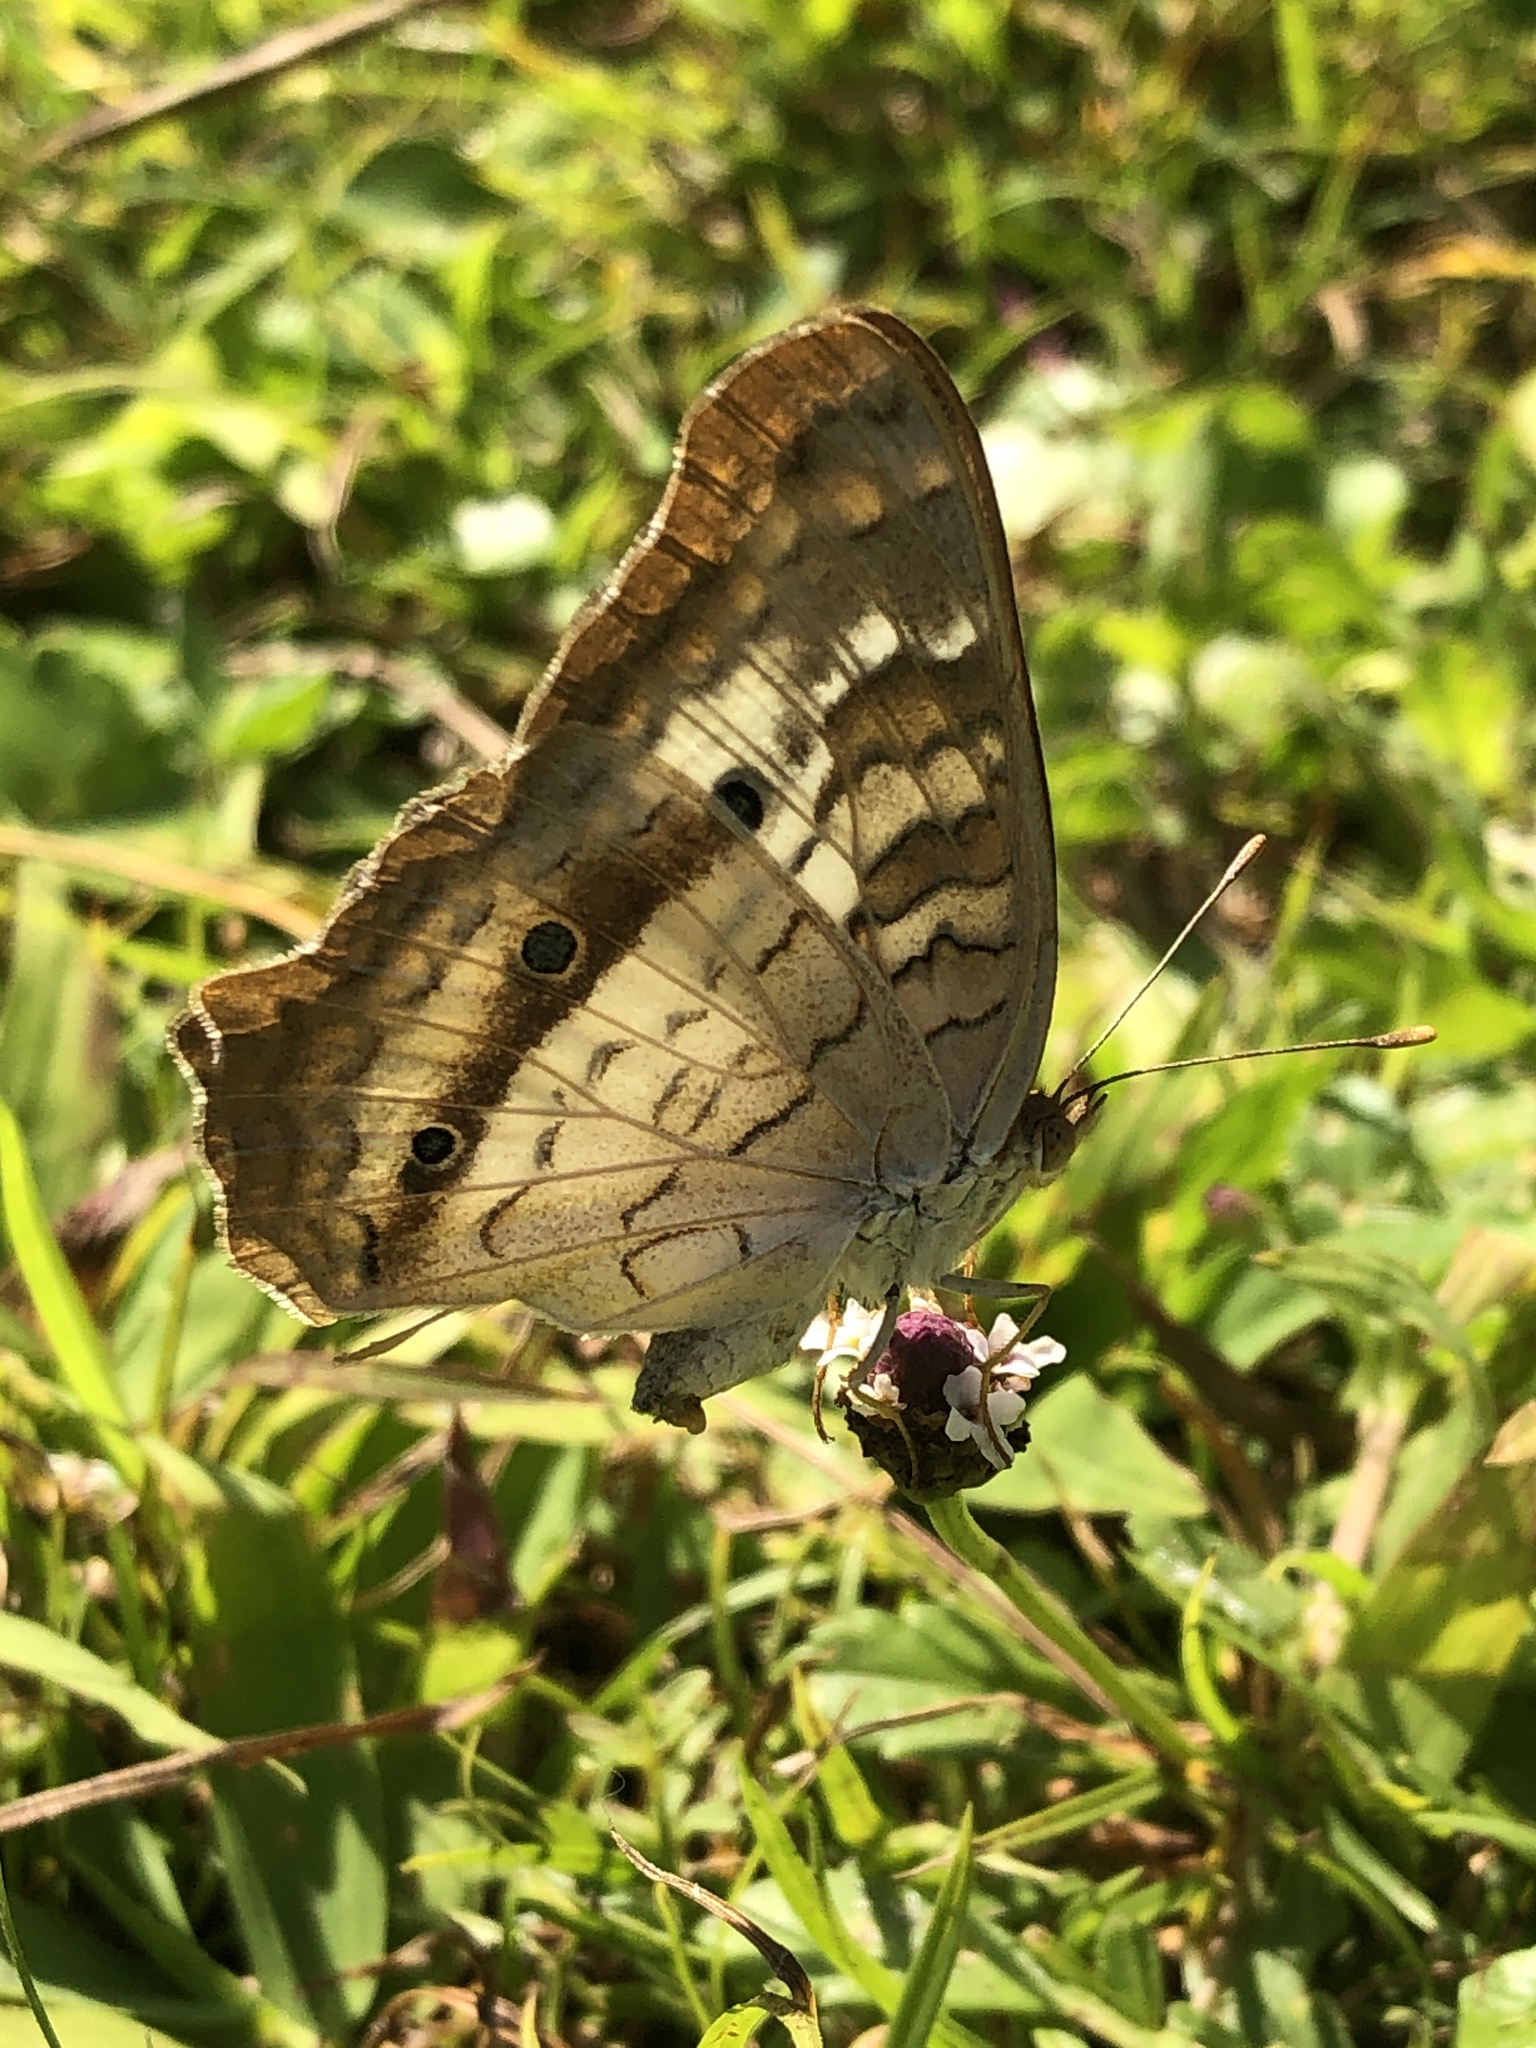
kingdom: Animalia
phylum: Arthropoda
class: Insecta
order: Lepidoptera
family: Nymphalidae
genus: Anartia
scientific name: Anartia jatrophae
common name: White peacock
